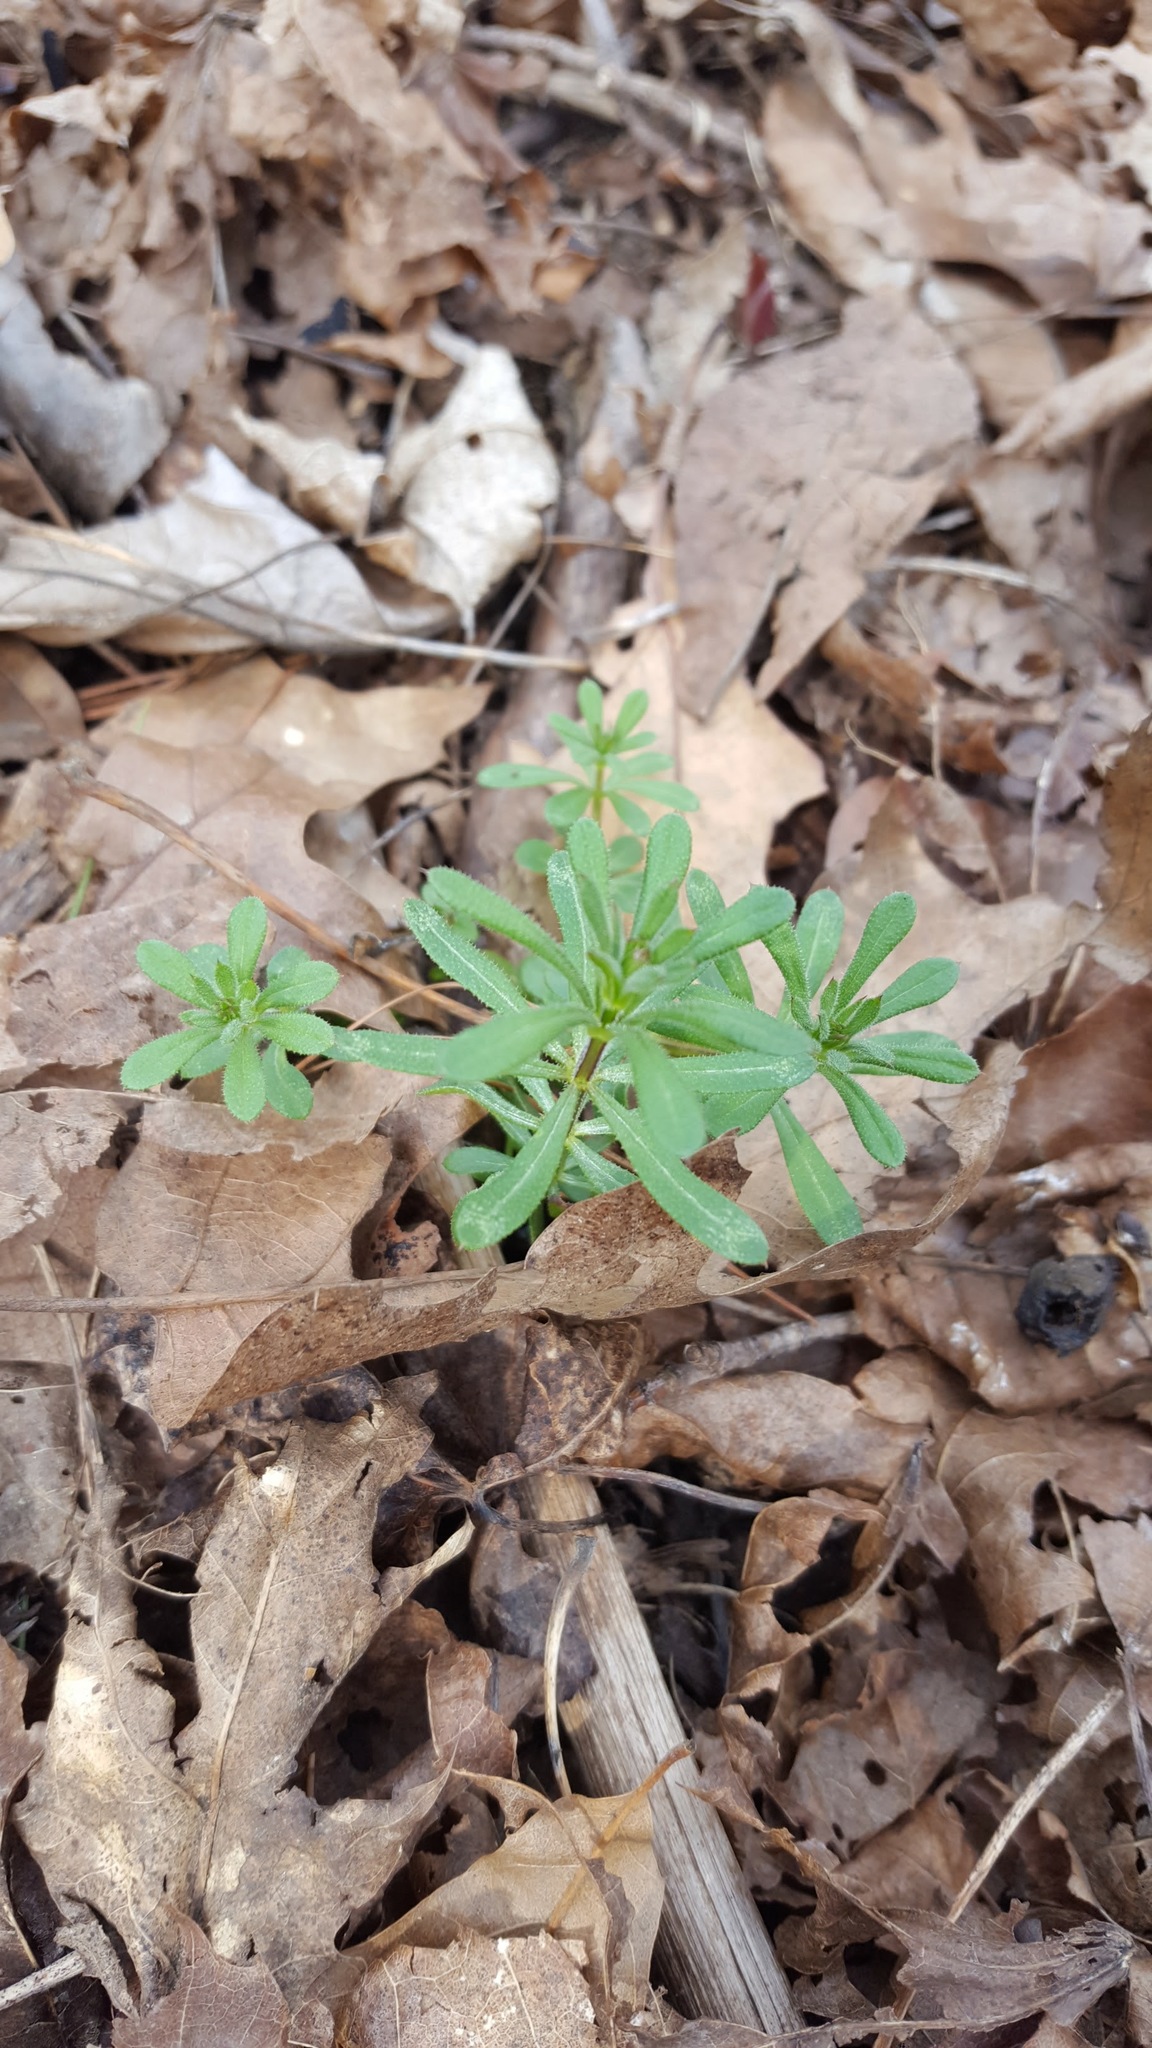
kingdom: Plantae
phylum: Tracheophyta
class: Magnoliopsida
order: Gentianales
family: Rubiaceae
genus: Galium
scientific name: Galium aparine
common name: Cleavers
